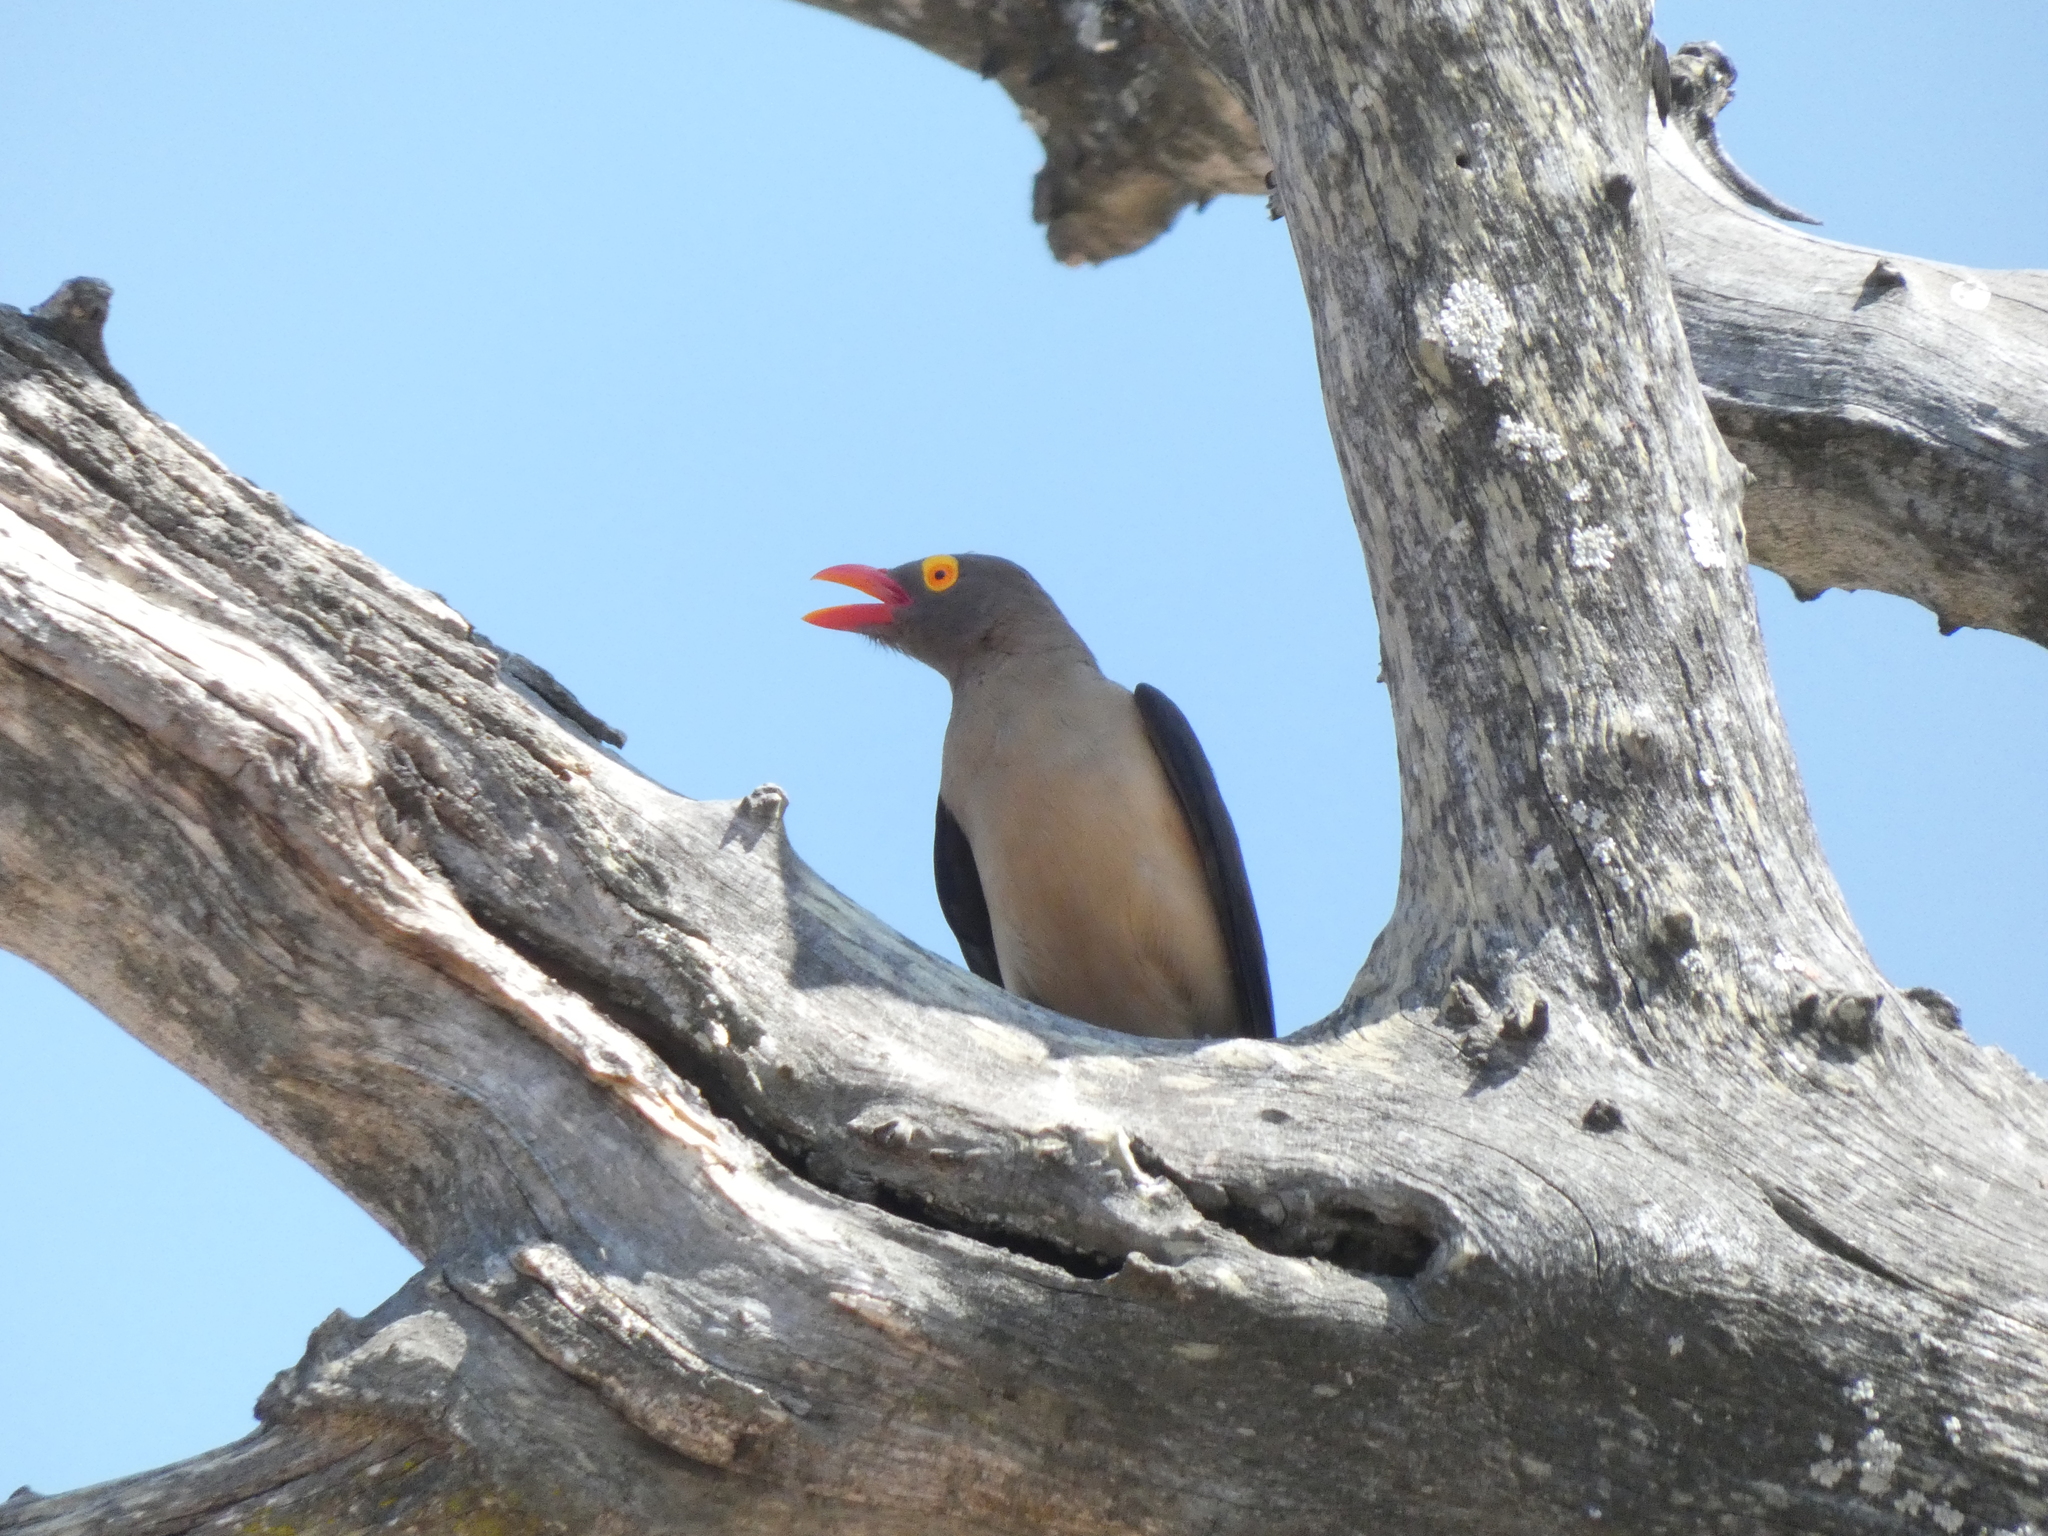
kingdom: Animalia
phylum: Chordata
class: Aves
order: Passeriformes
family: Buphagidae
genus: Buphagus
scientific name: Buphagus erythrorhynchus
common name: Red-billed oxpecker
